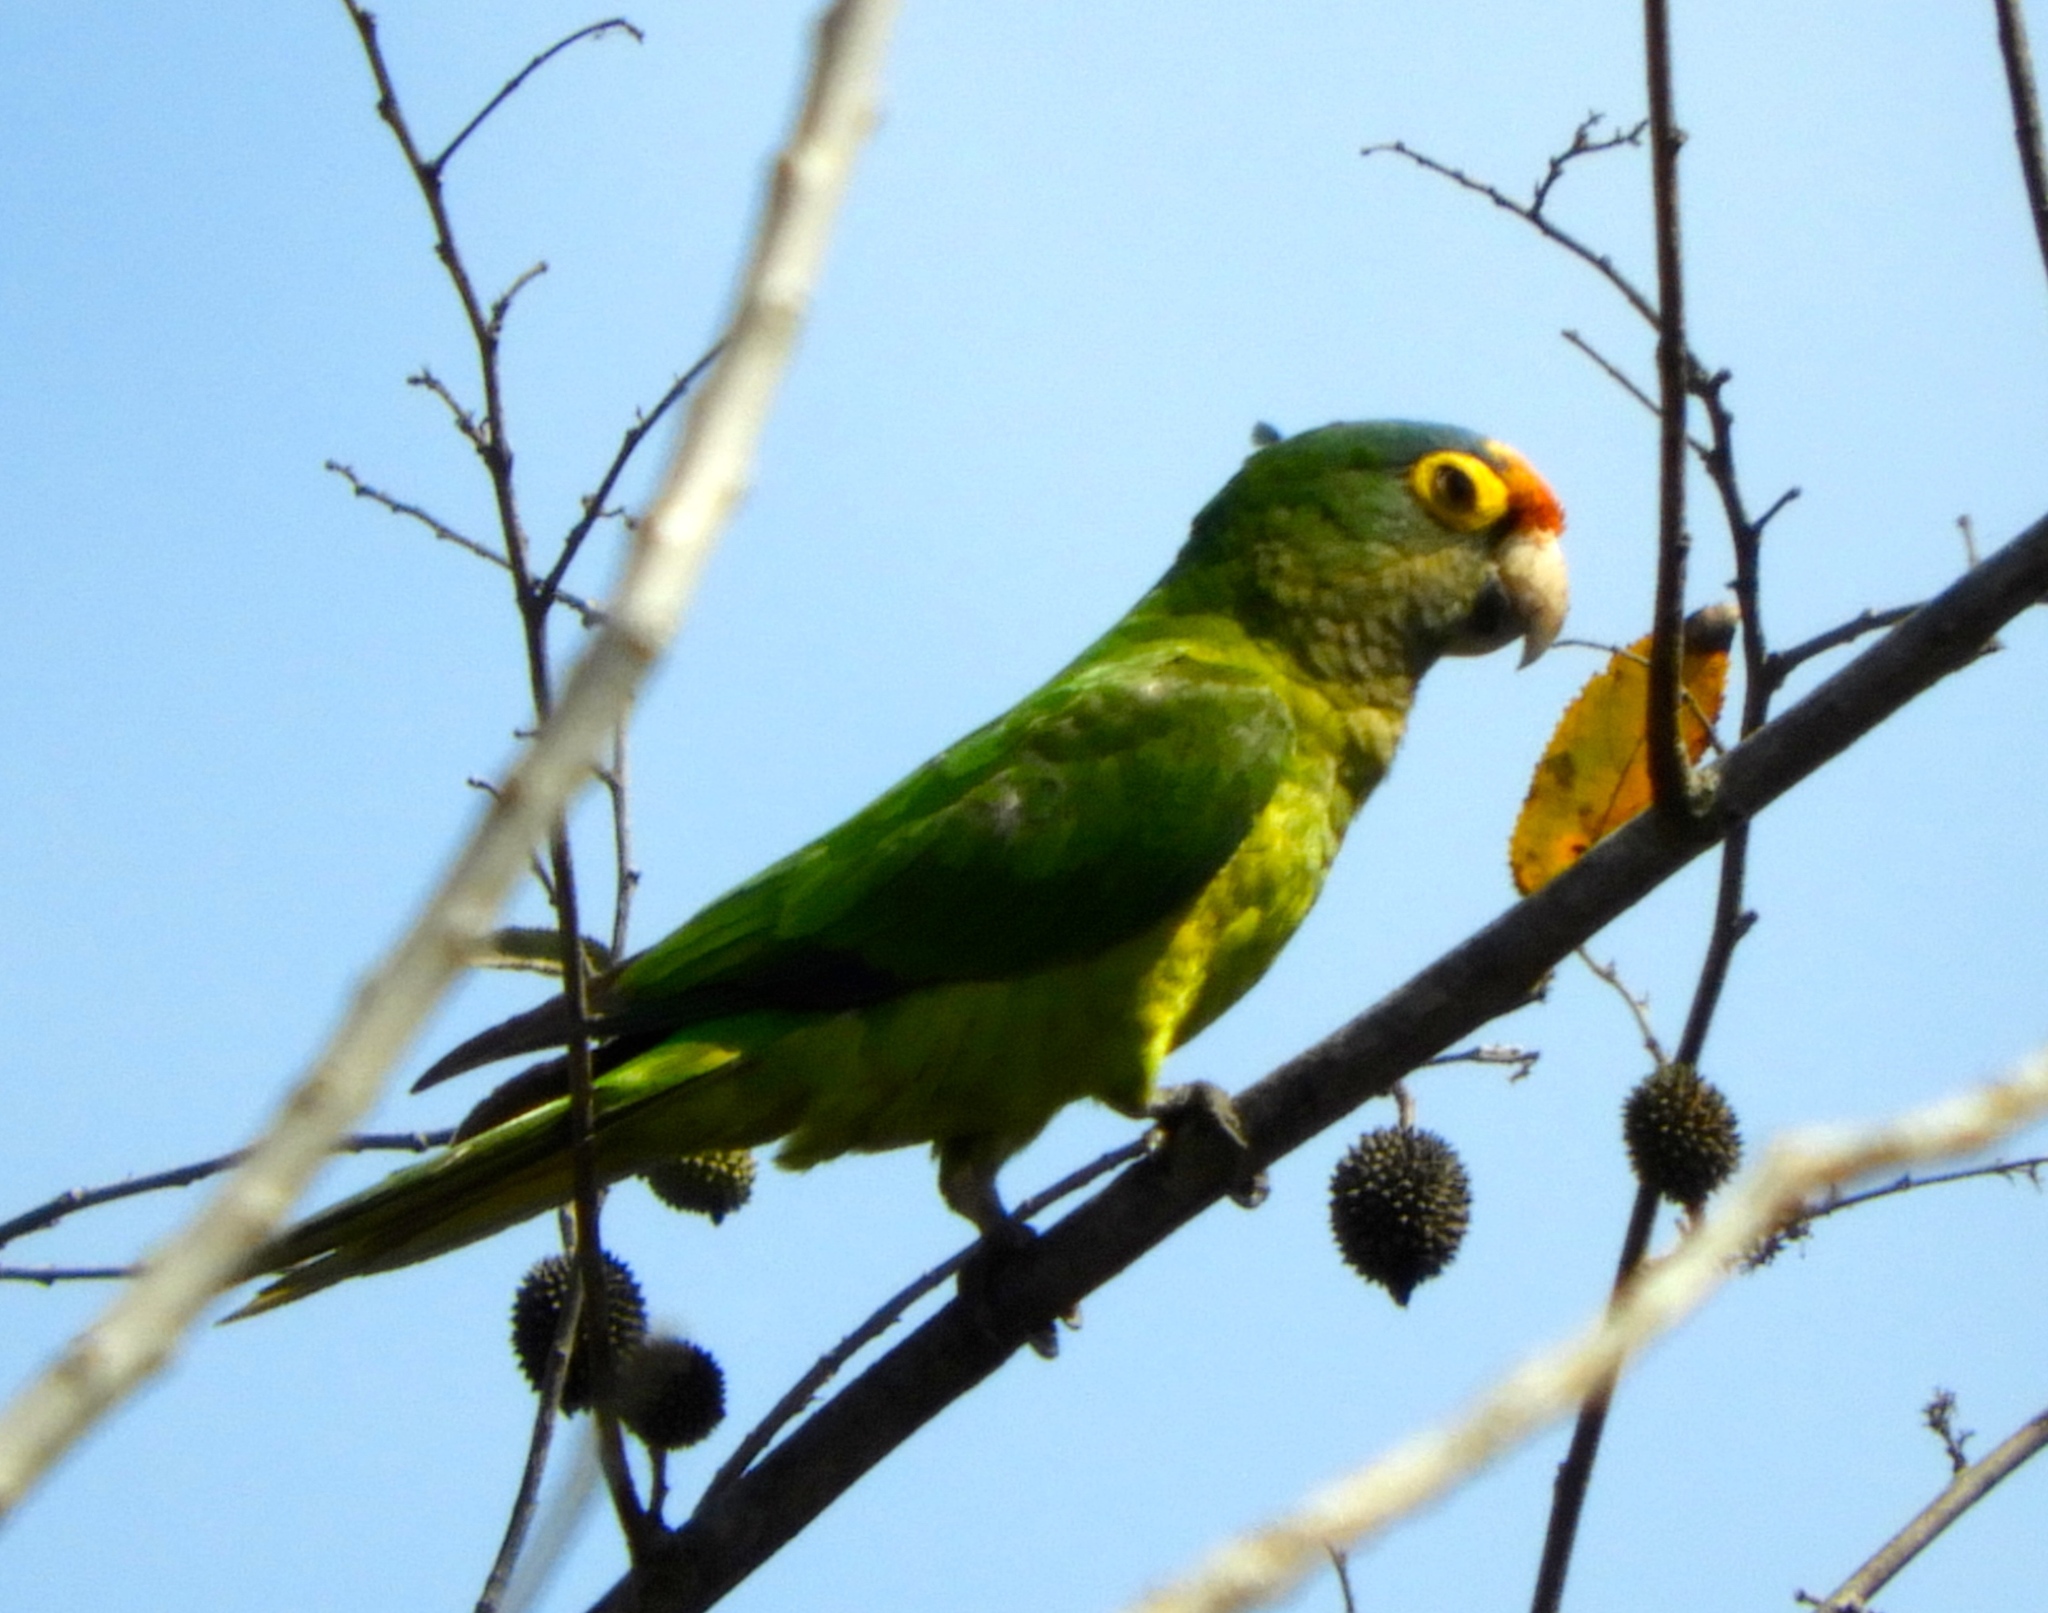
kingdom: Animalia
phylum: Chordata
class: Aves
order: Psittaciformes
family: Psittacidae
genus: Aratinga
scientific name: Aratinga canicularis
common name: Orange-fronted parakeet
